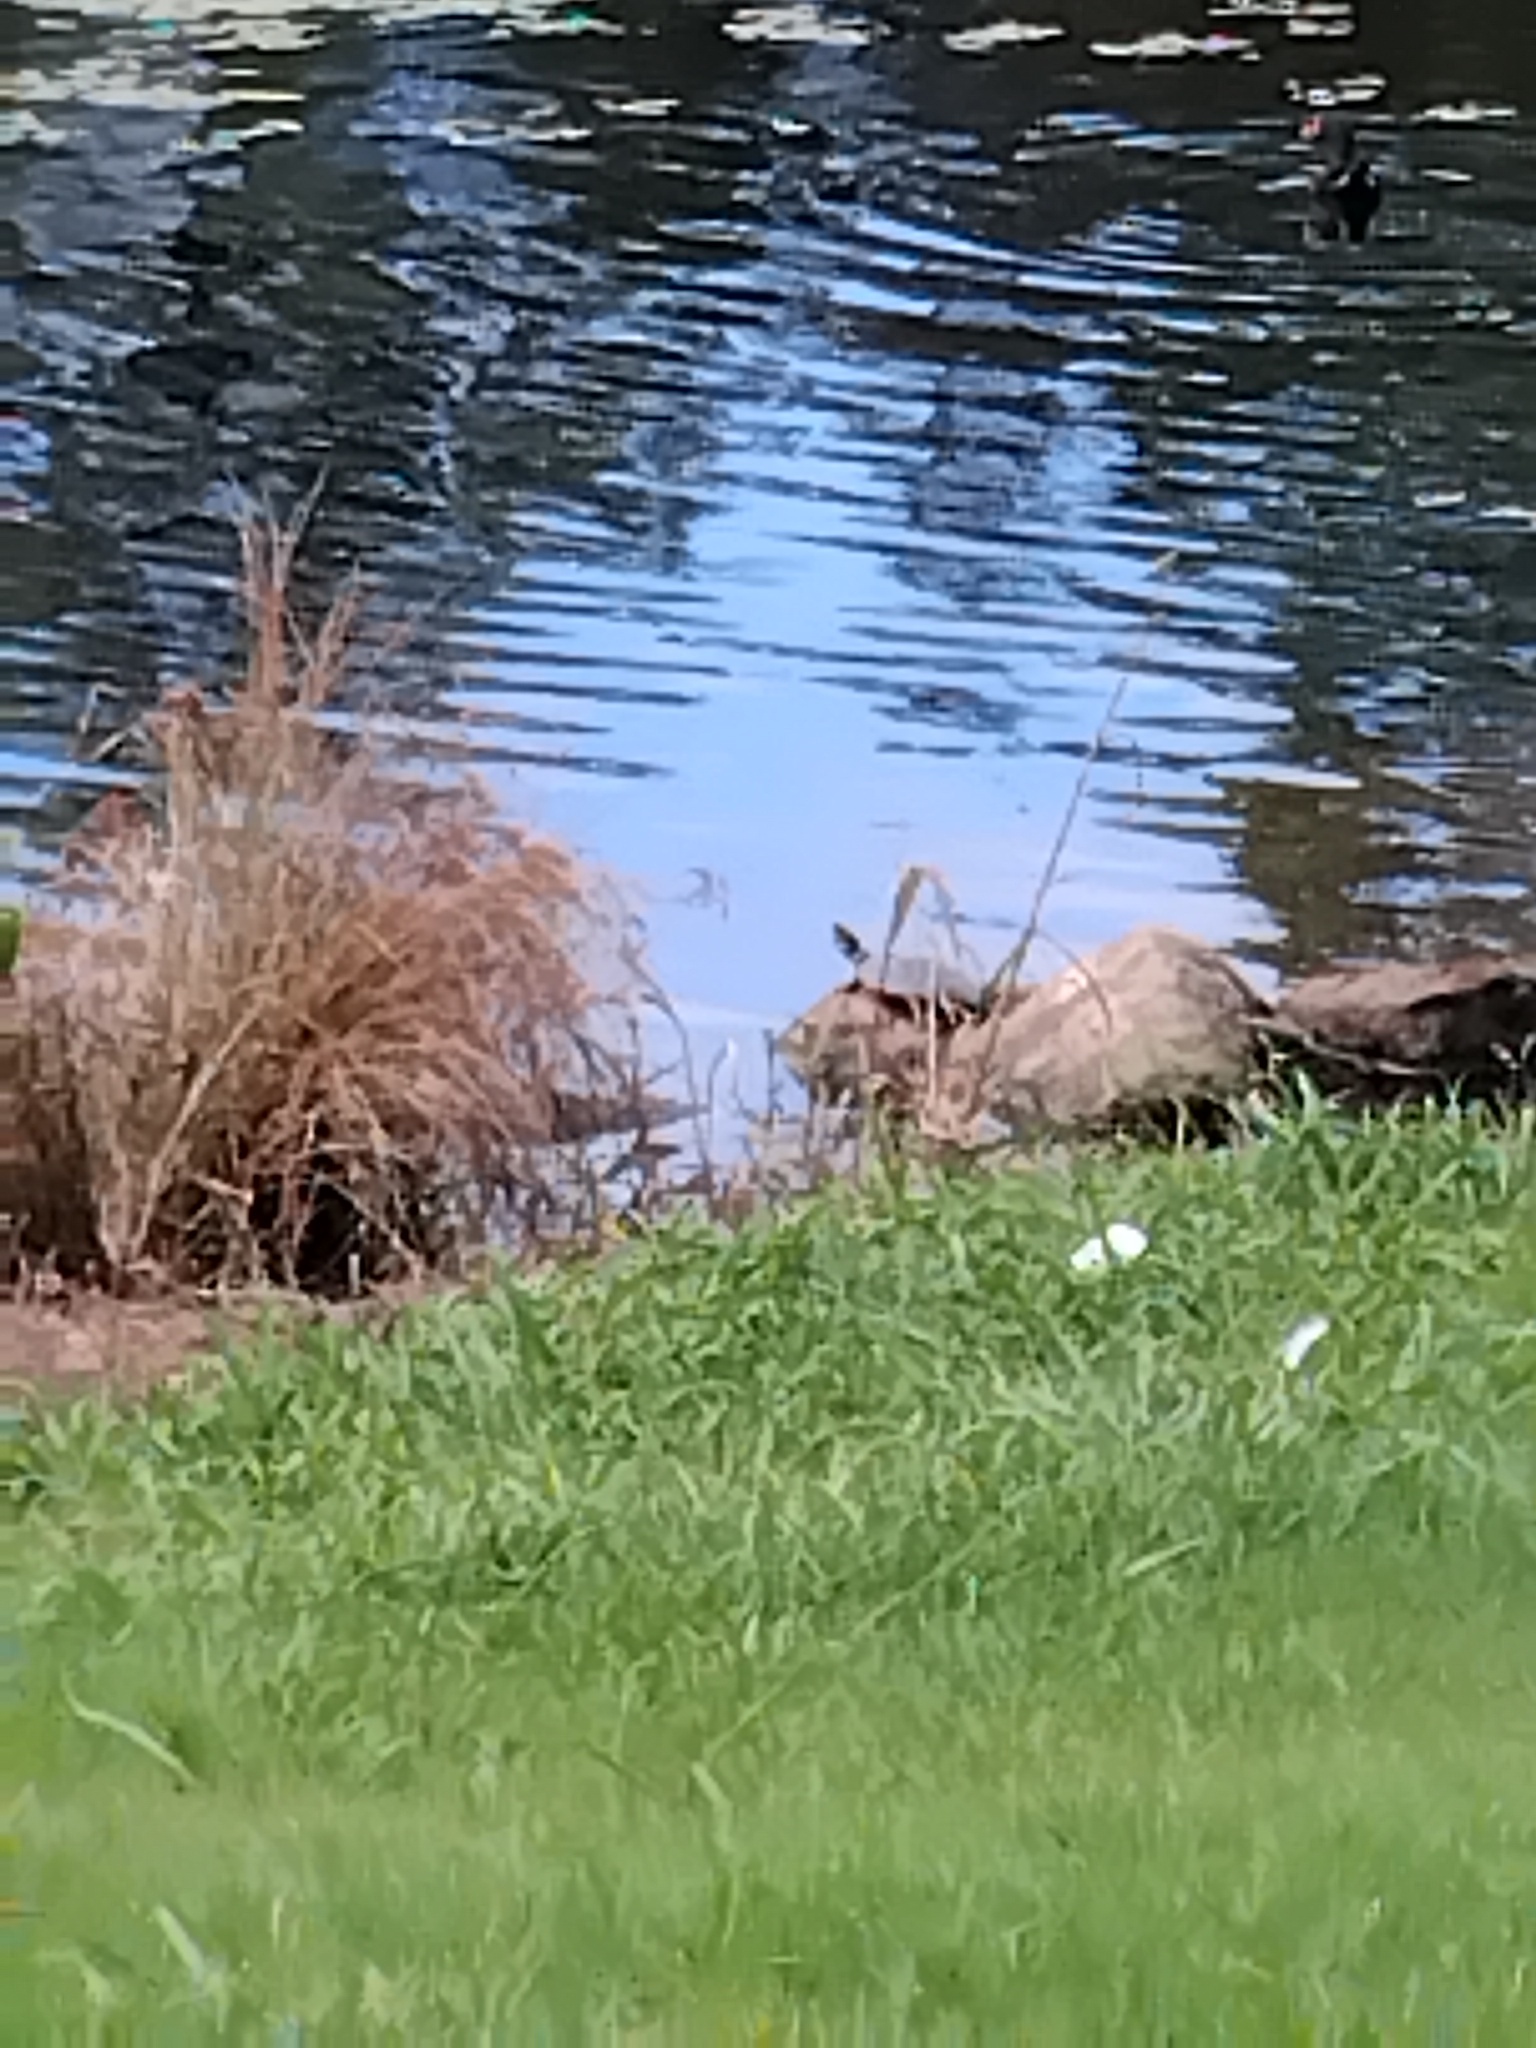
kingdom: Animalia
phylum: Chordata
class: Testudines
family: Chelidae
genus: Emydura
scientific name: Emydura macquarii
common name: Murray river turtle
